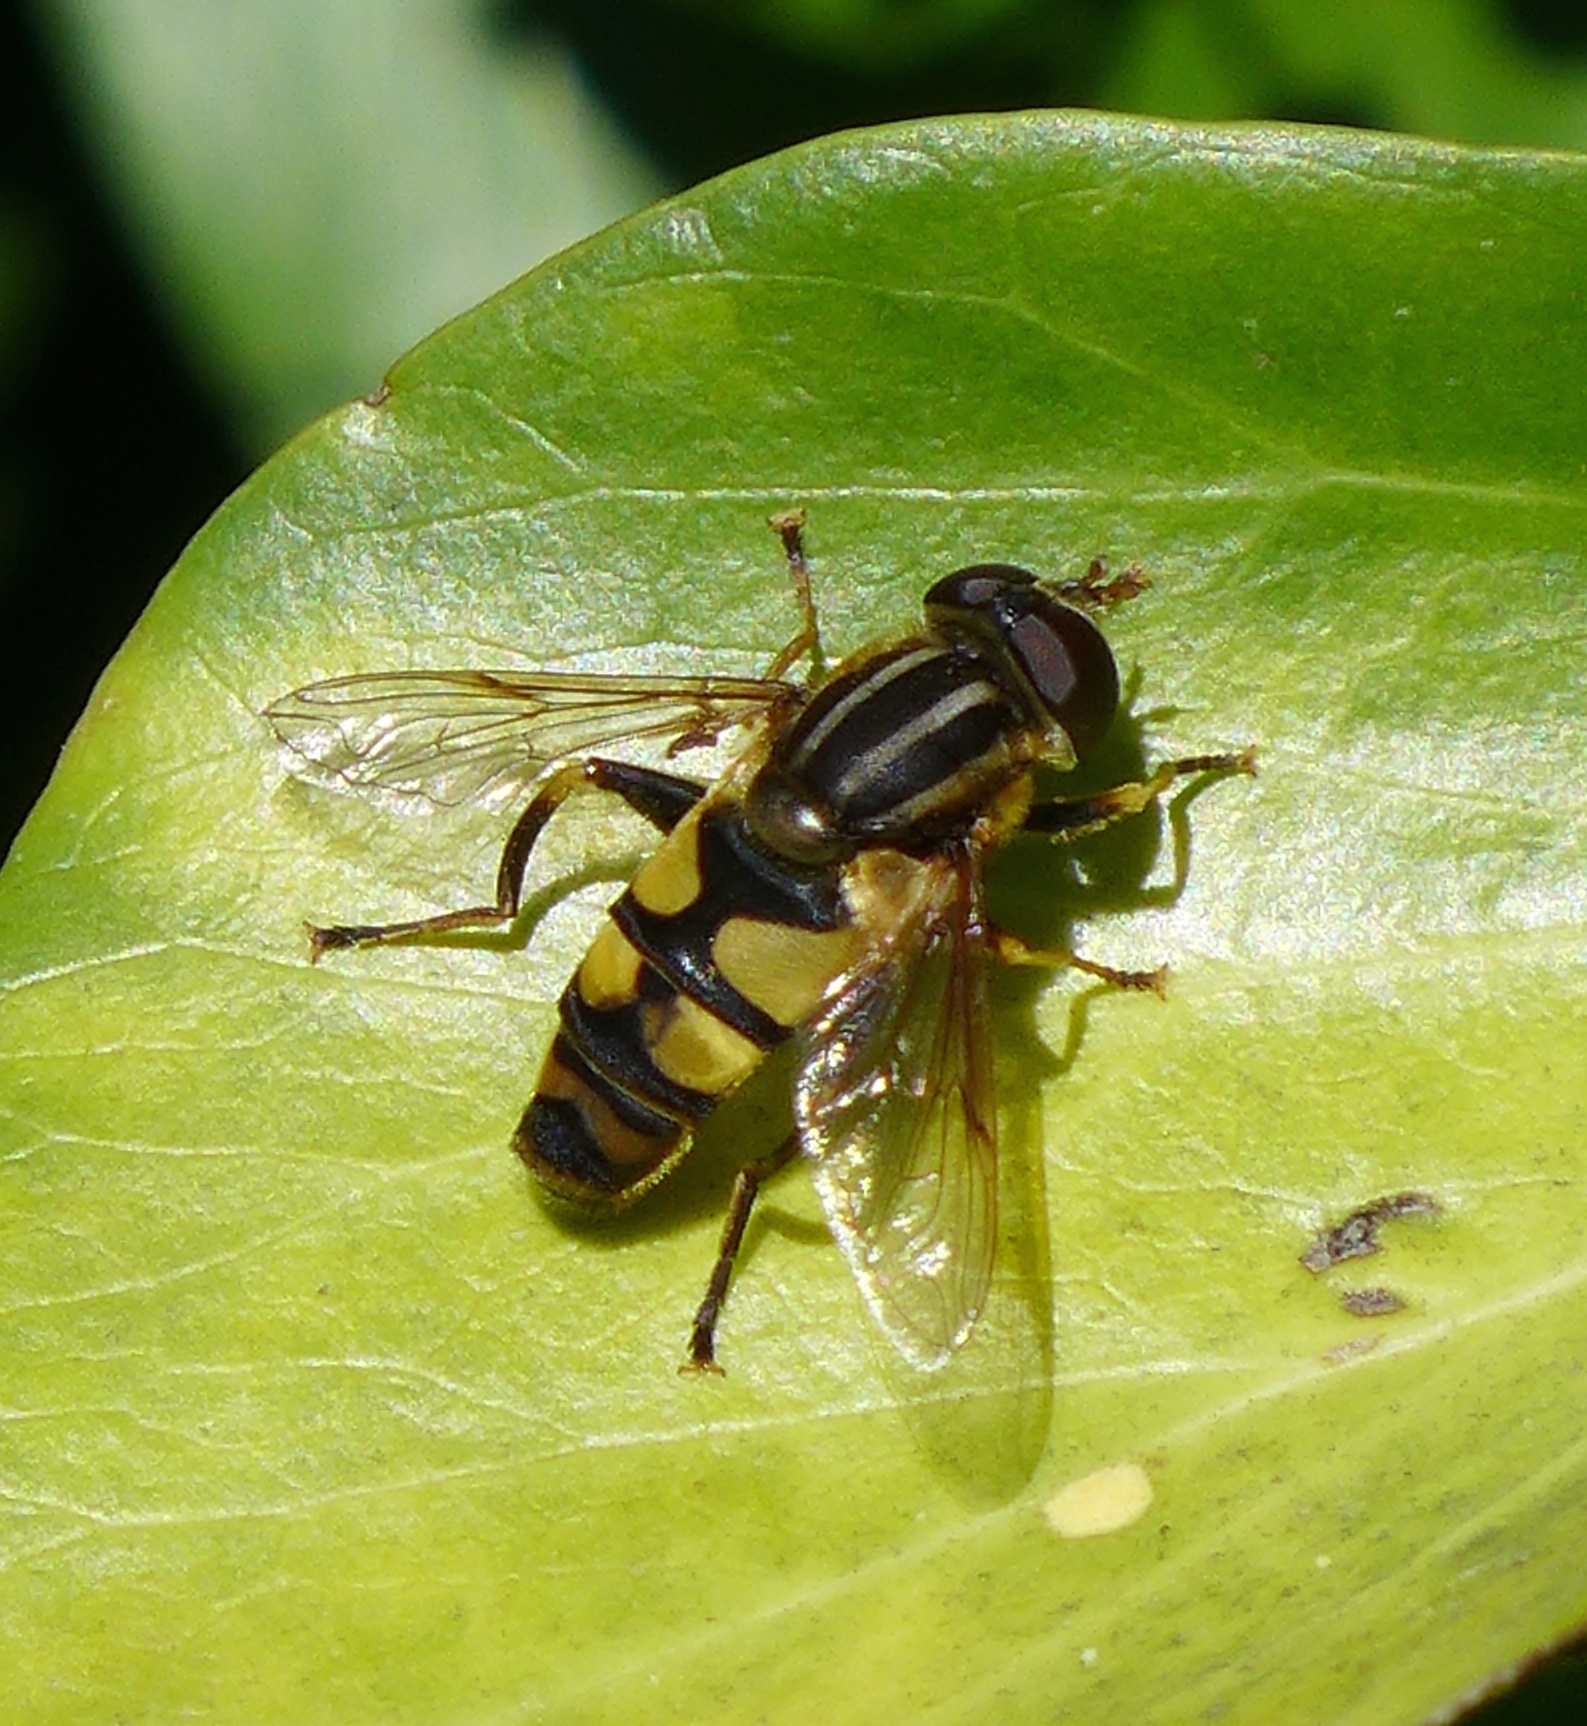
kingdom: Animalia
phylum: Arthropoda
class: Insecta
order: Diptera
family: Syrphidae
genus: Helophilus
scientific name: Helophilus fasciatus
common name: Narrow-headed marsh fly
